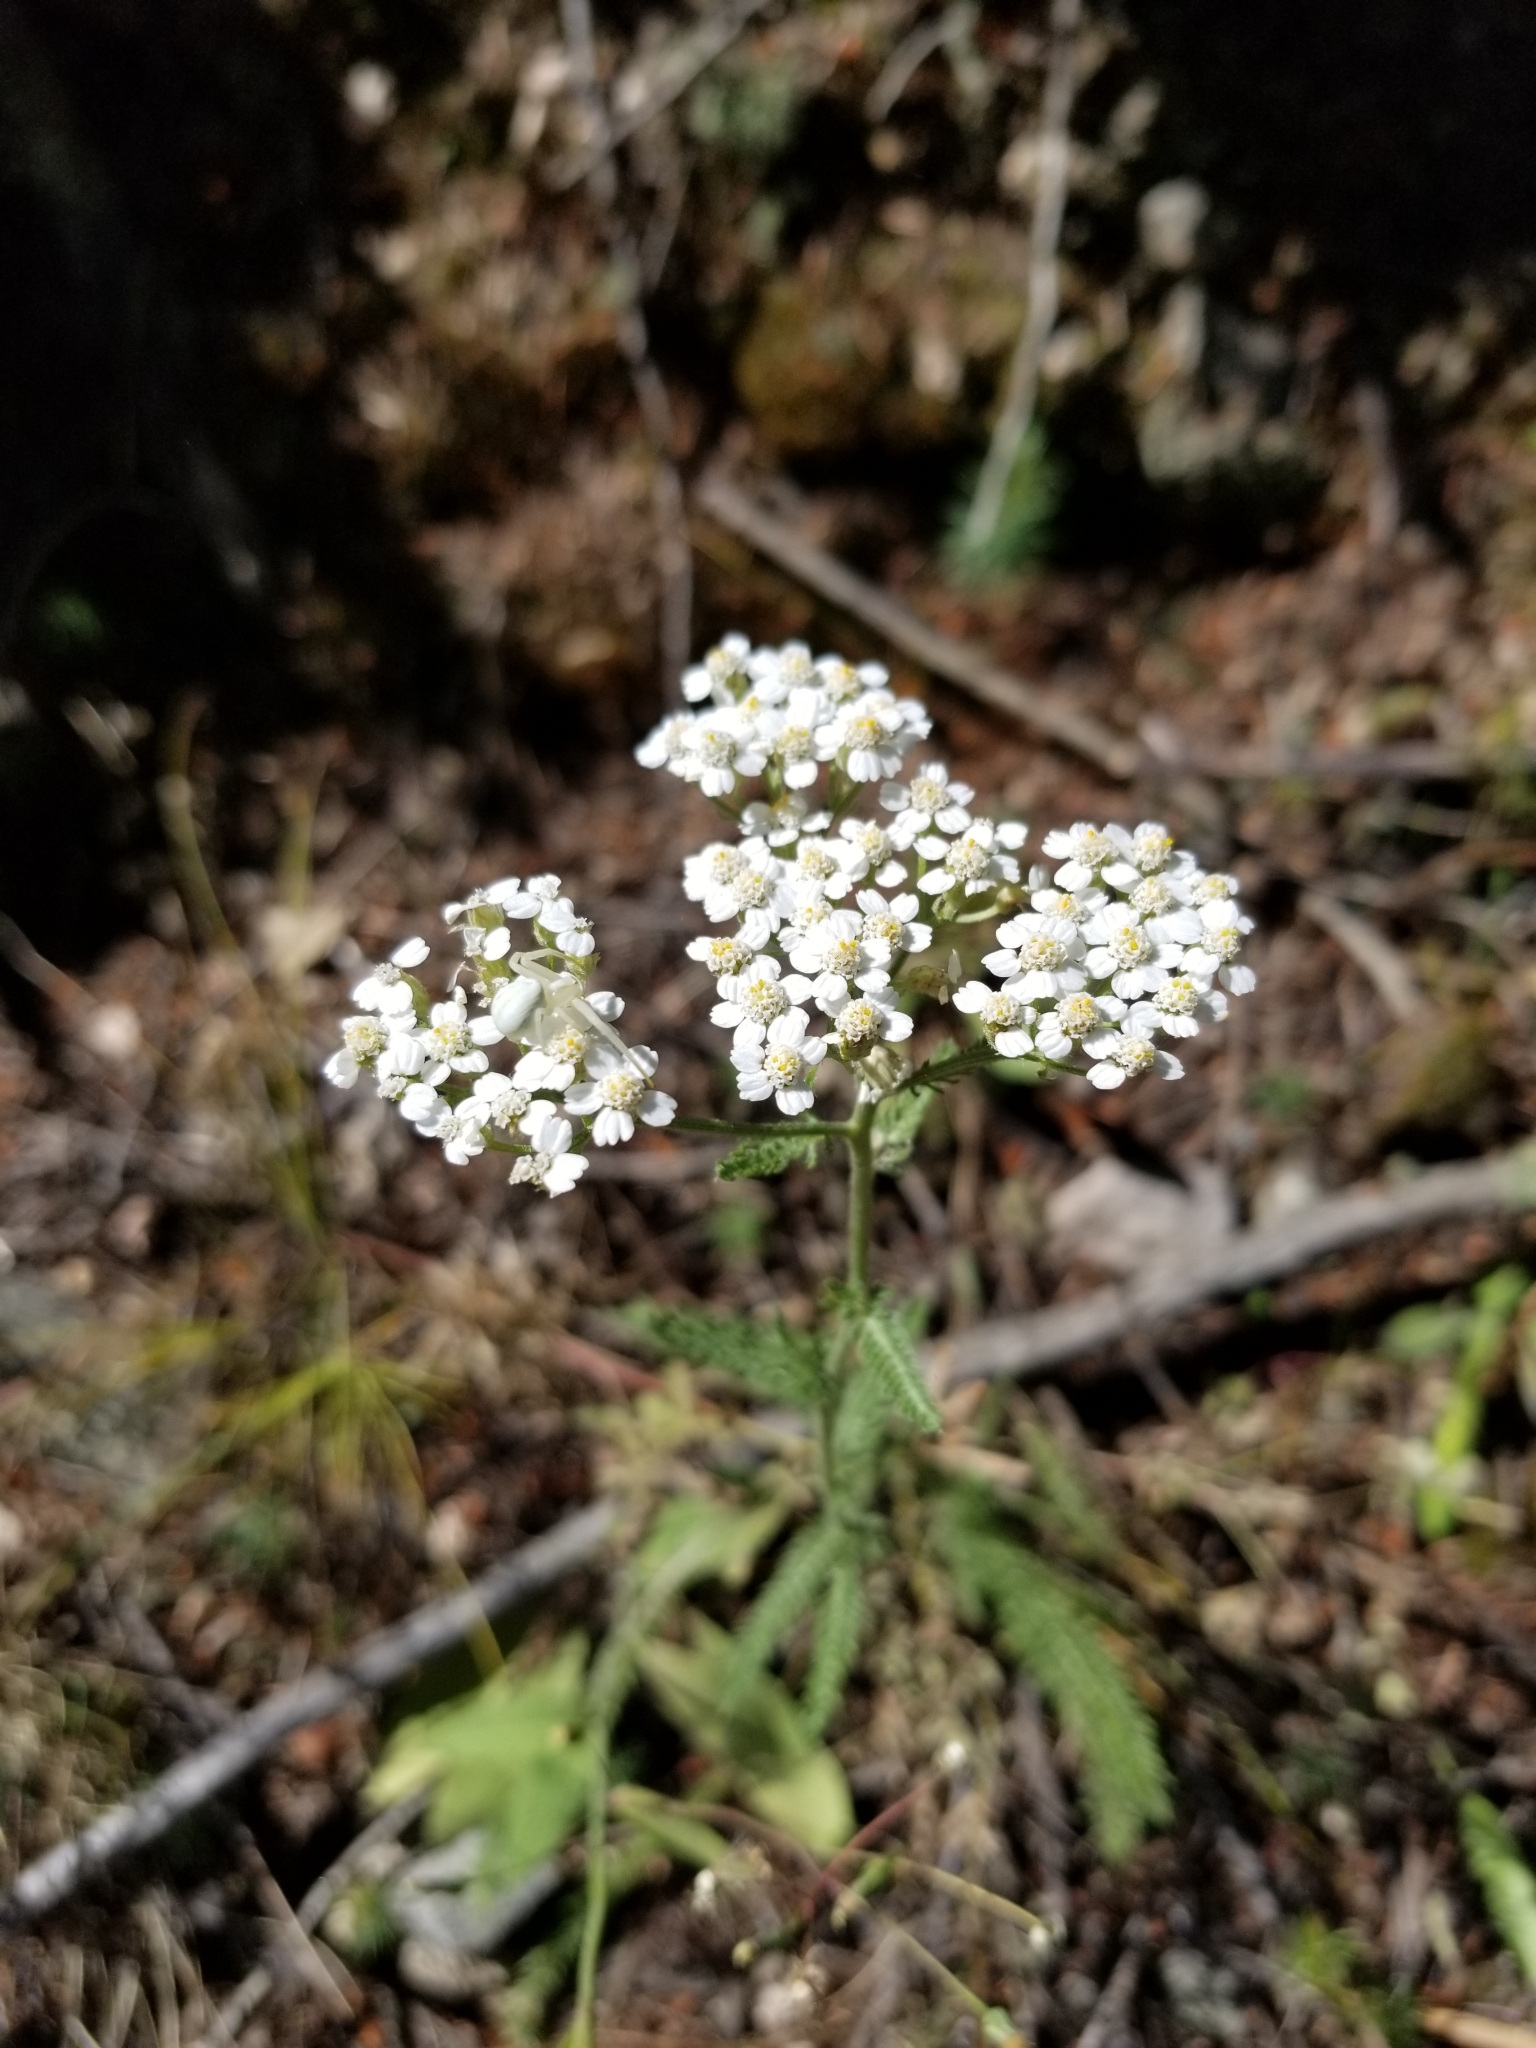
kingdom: Plantae
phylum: Tracheophyta
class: Magnoliopsida
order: Asterales
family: Asteraceae
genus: Achillea
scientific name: Achillea millefolium
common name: Yarrow
